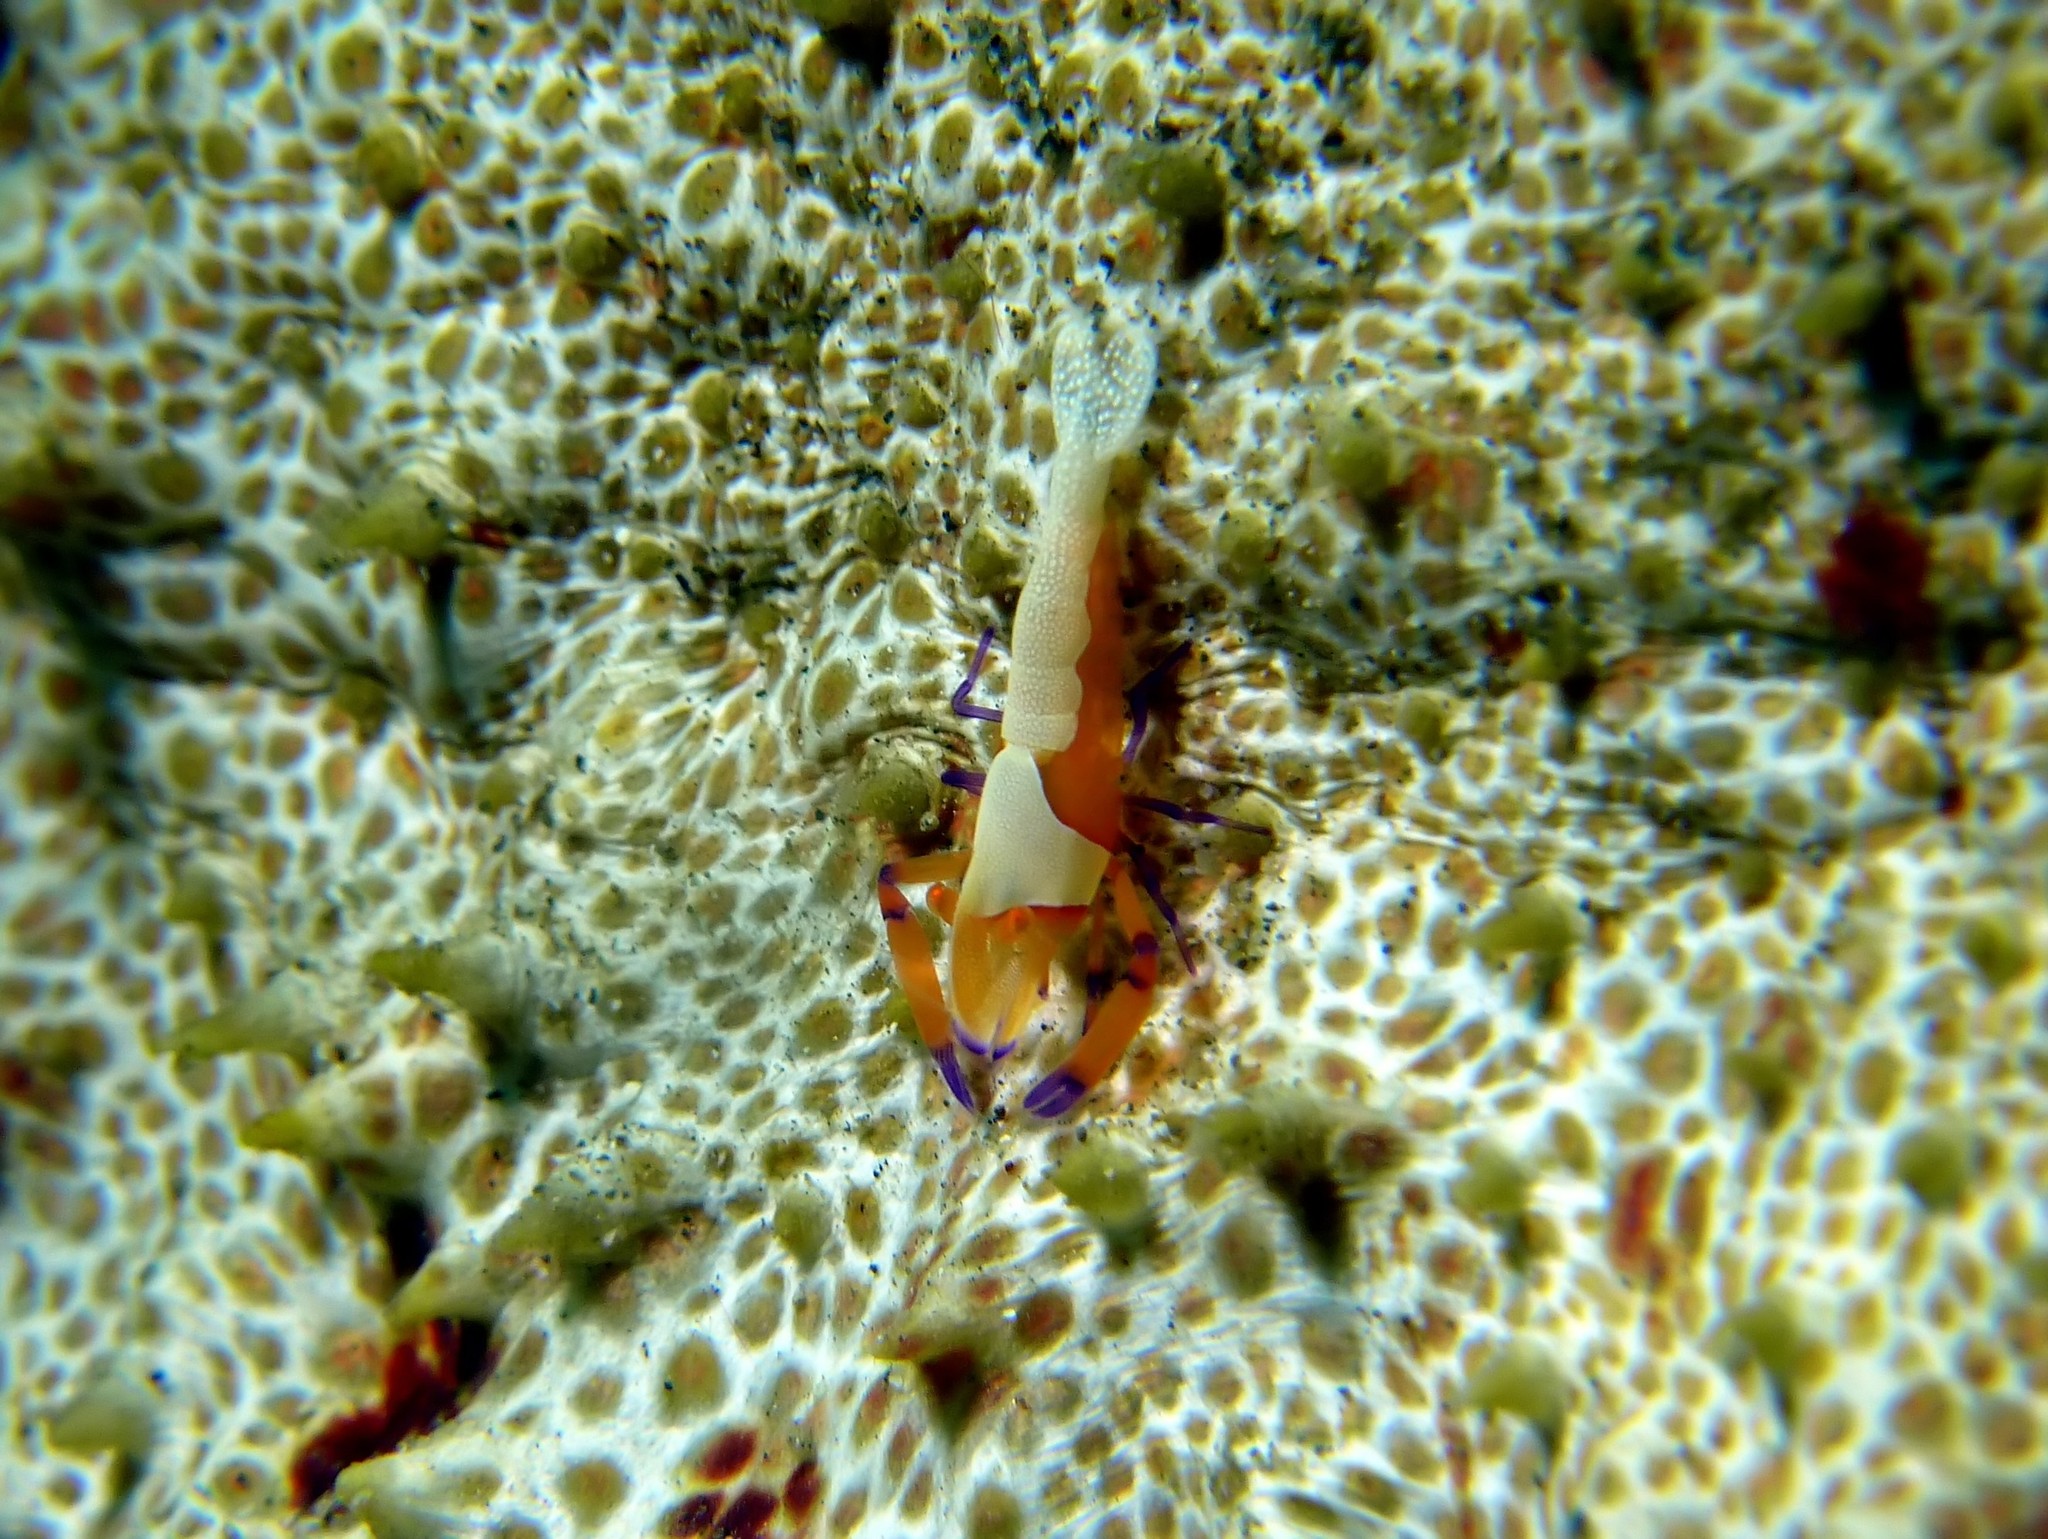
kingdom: Animalia
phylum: Arthropoda
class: Malacostraca
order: Decapoda
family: Palaemonidae
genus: Periclimenes
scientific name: Periclimenes rex
